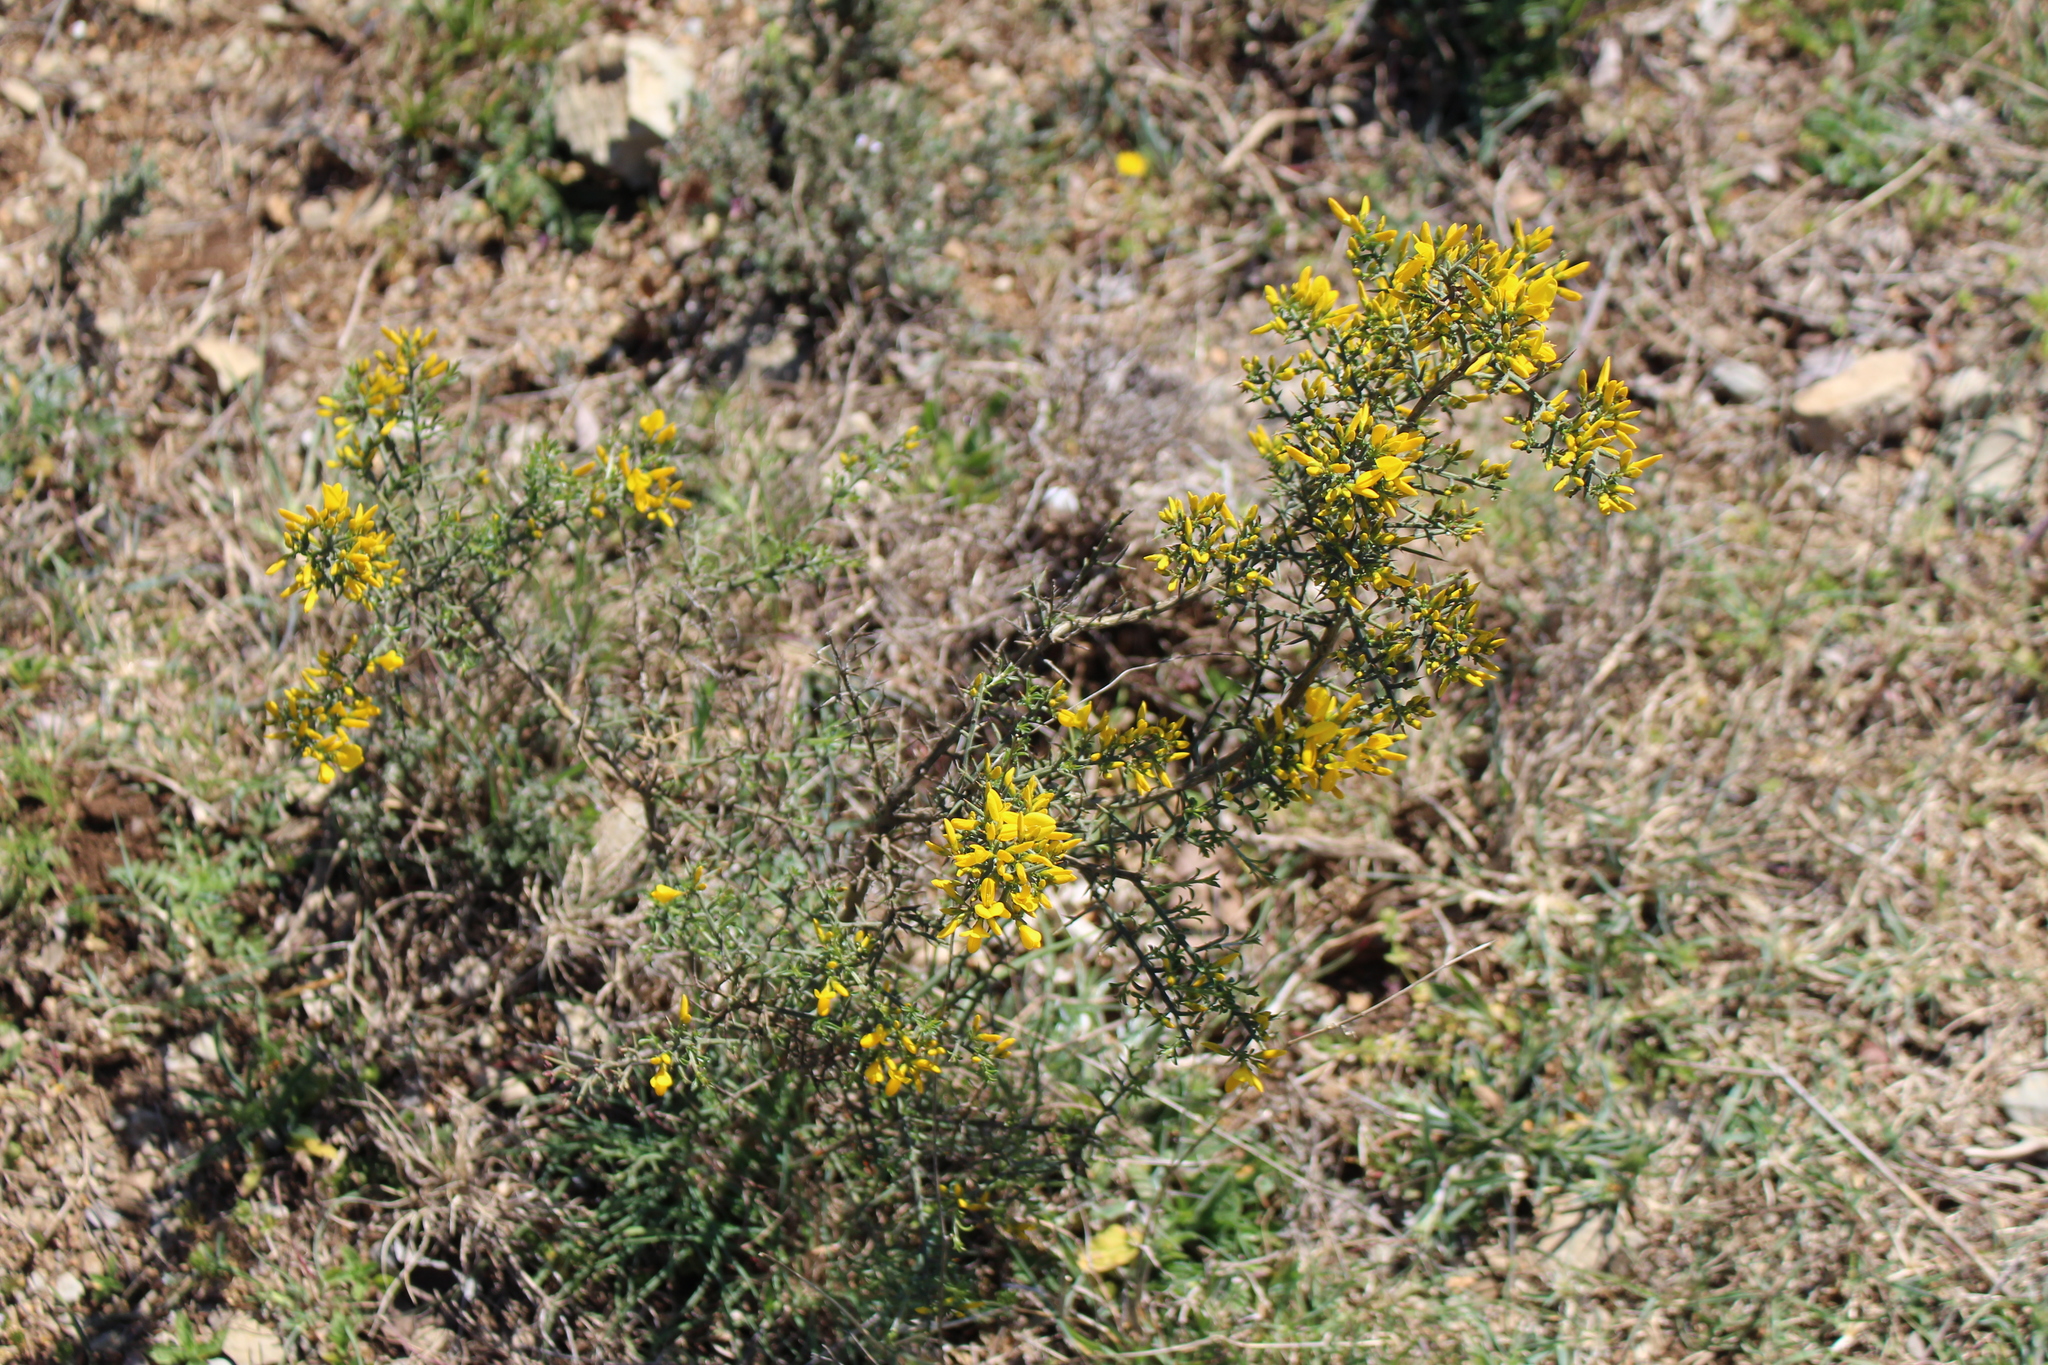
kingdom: Plantae
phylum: Tracheophyta
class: Magnoliopsida
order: Fabales
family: Fabaceae
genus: Genista
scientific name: Genista scorpius
